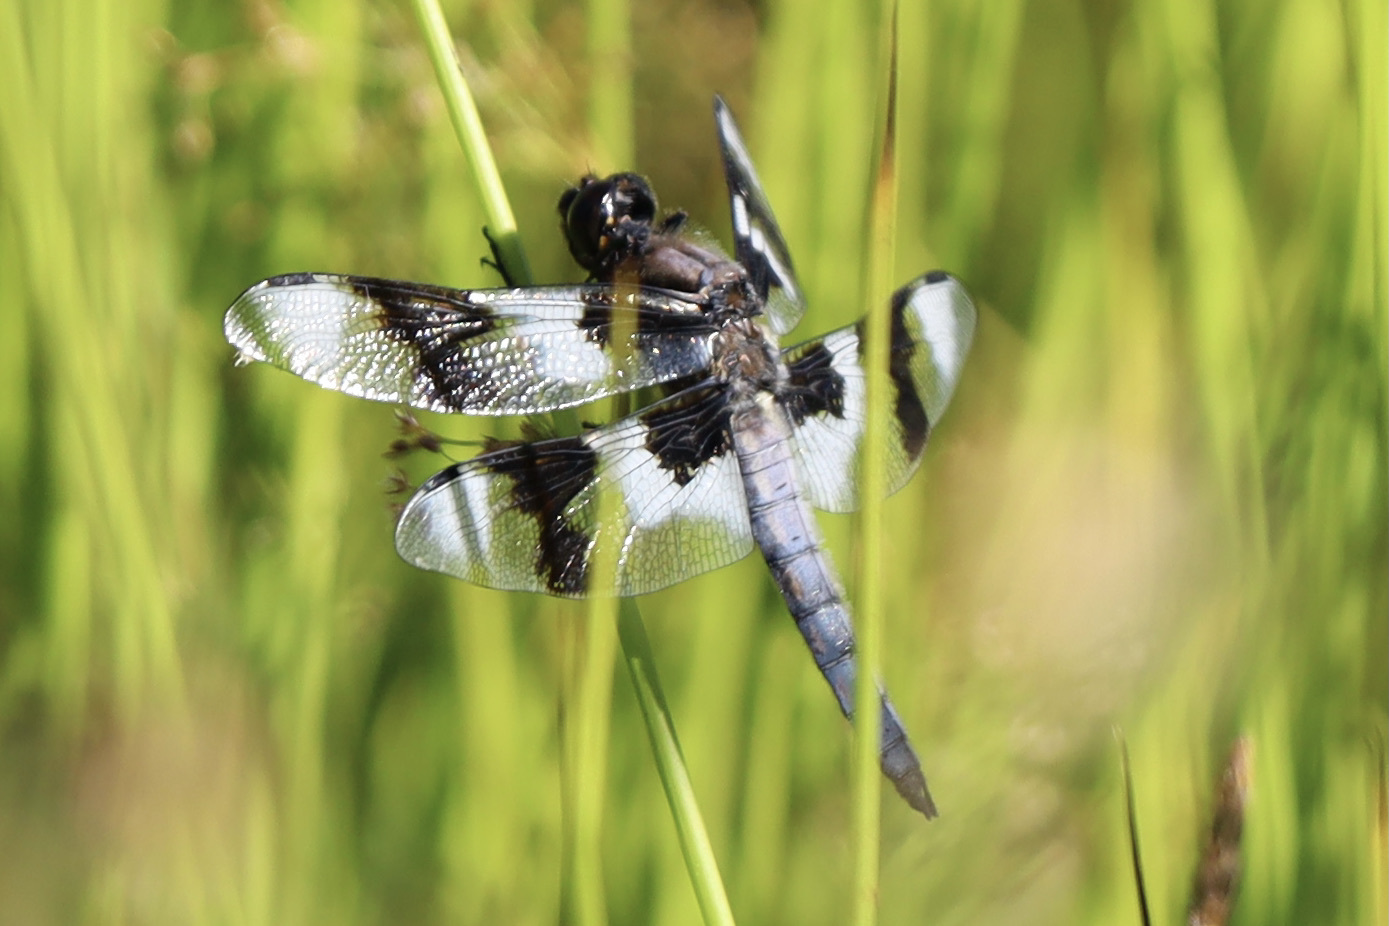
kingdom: Animalia
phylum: Arthropoda
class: Insecta
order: Odonata
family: Libellulidae
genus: Libellula
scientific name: Libellula forensis
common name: Eight-spotted skimmer
